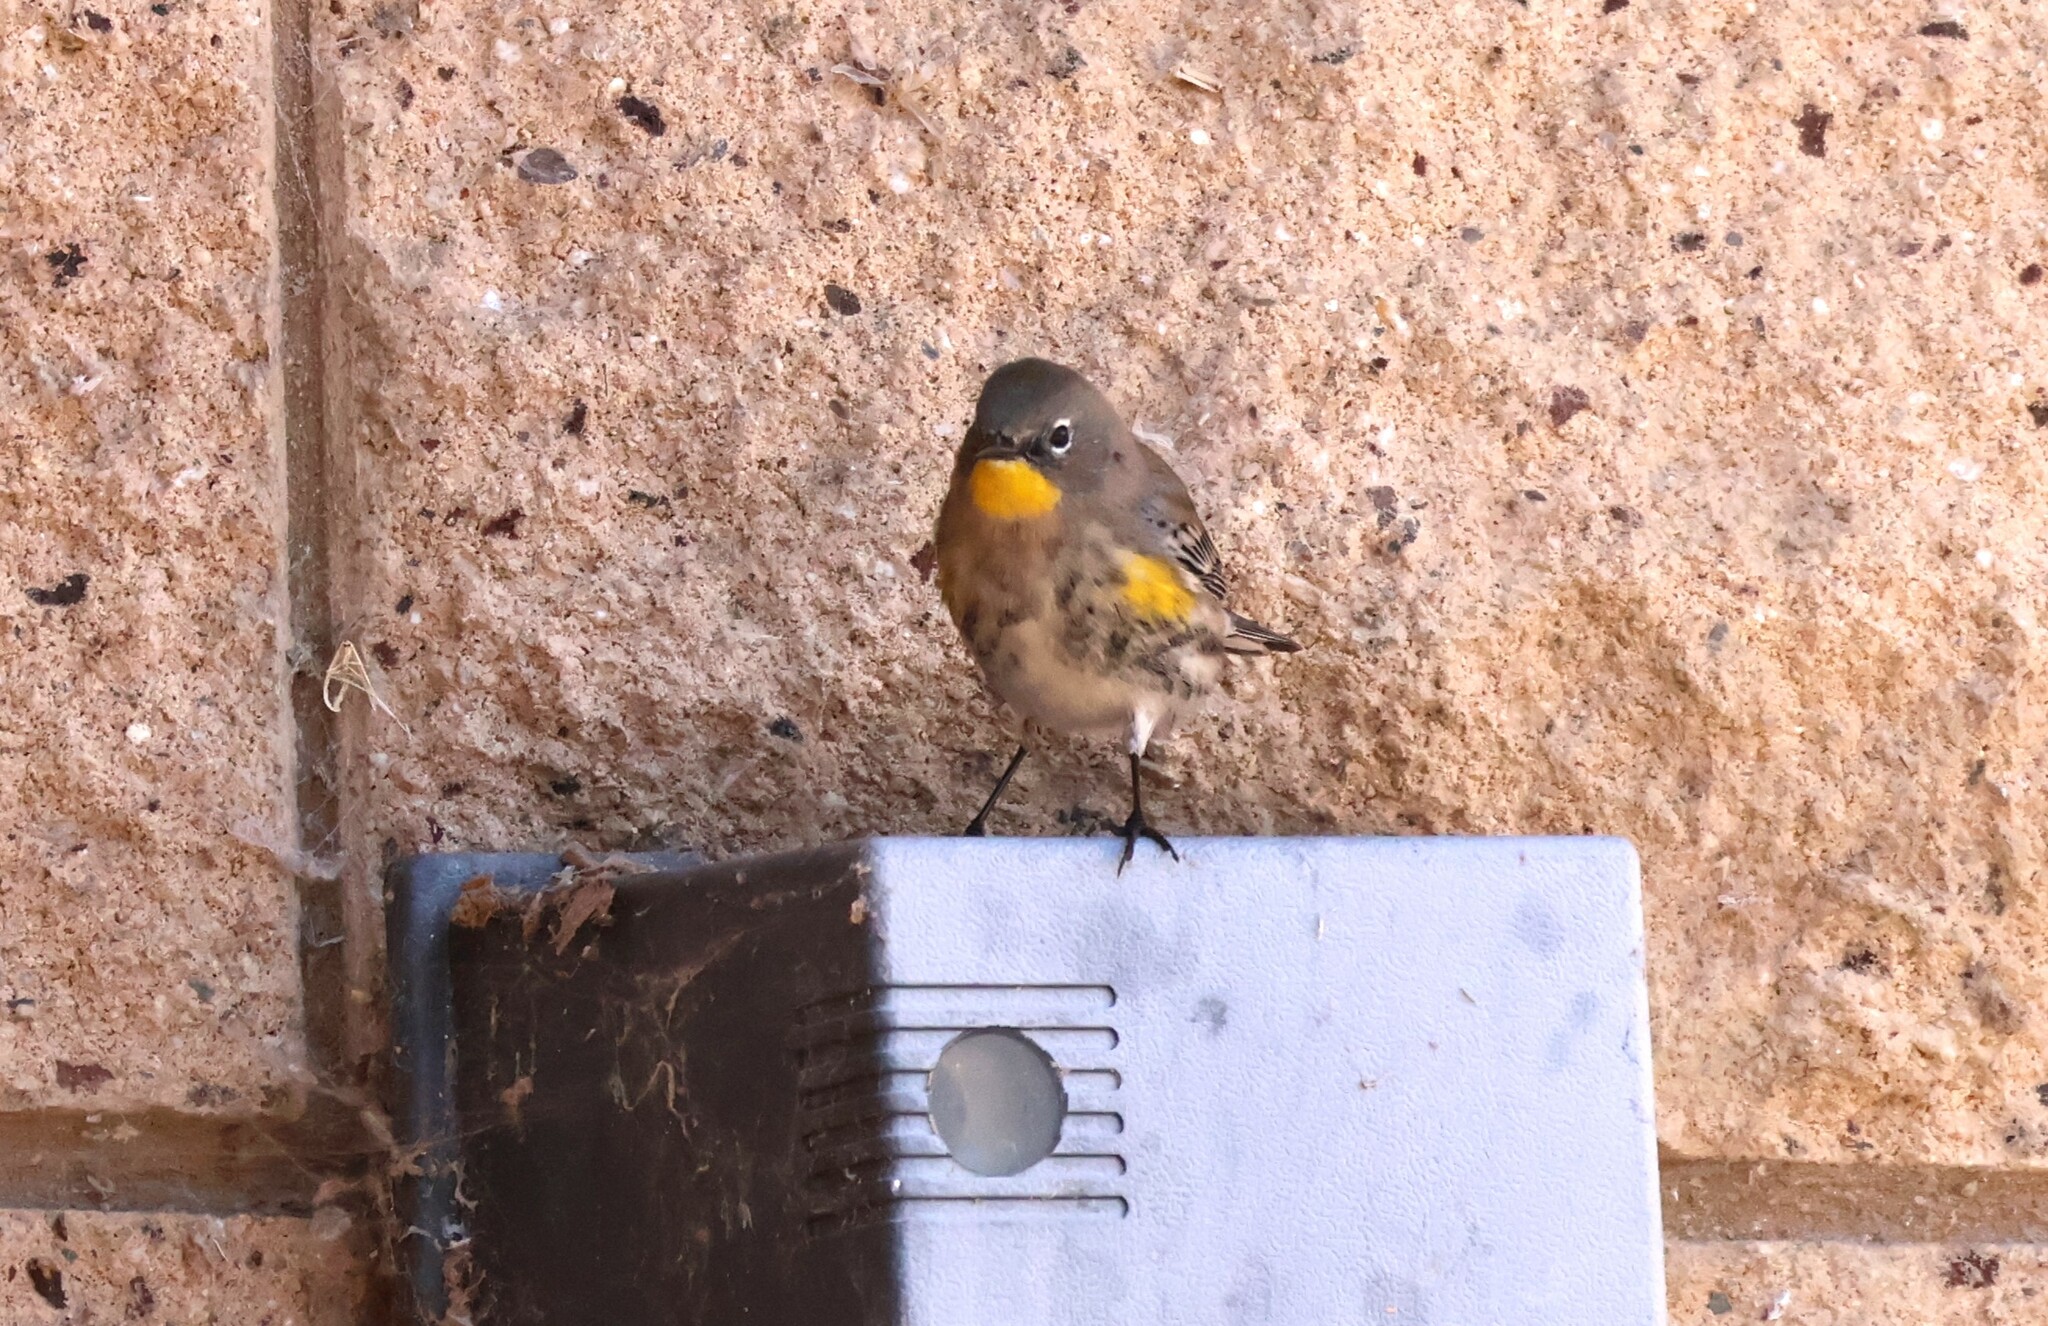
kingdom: Animalia
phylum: Chordata
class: Aves
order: Passeriformes
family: Parulidae
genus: Setophaga
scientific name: Setophaga auduboni
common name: Audubon's warbler
